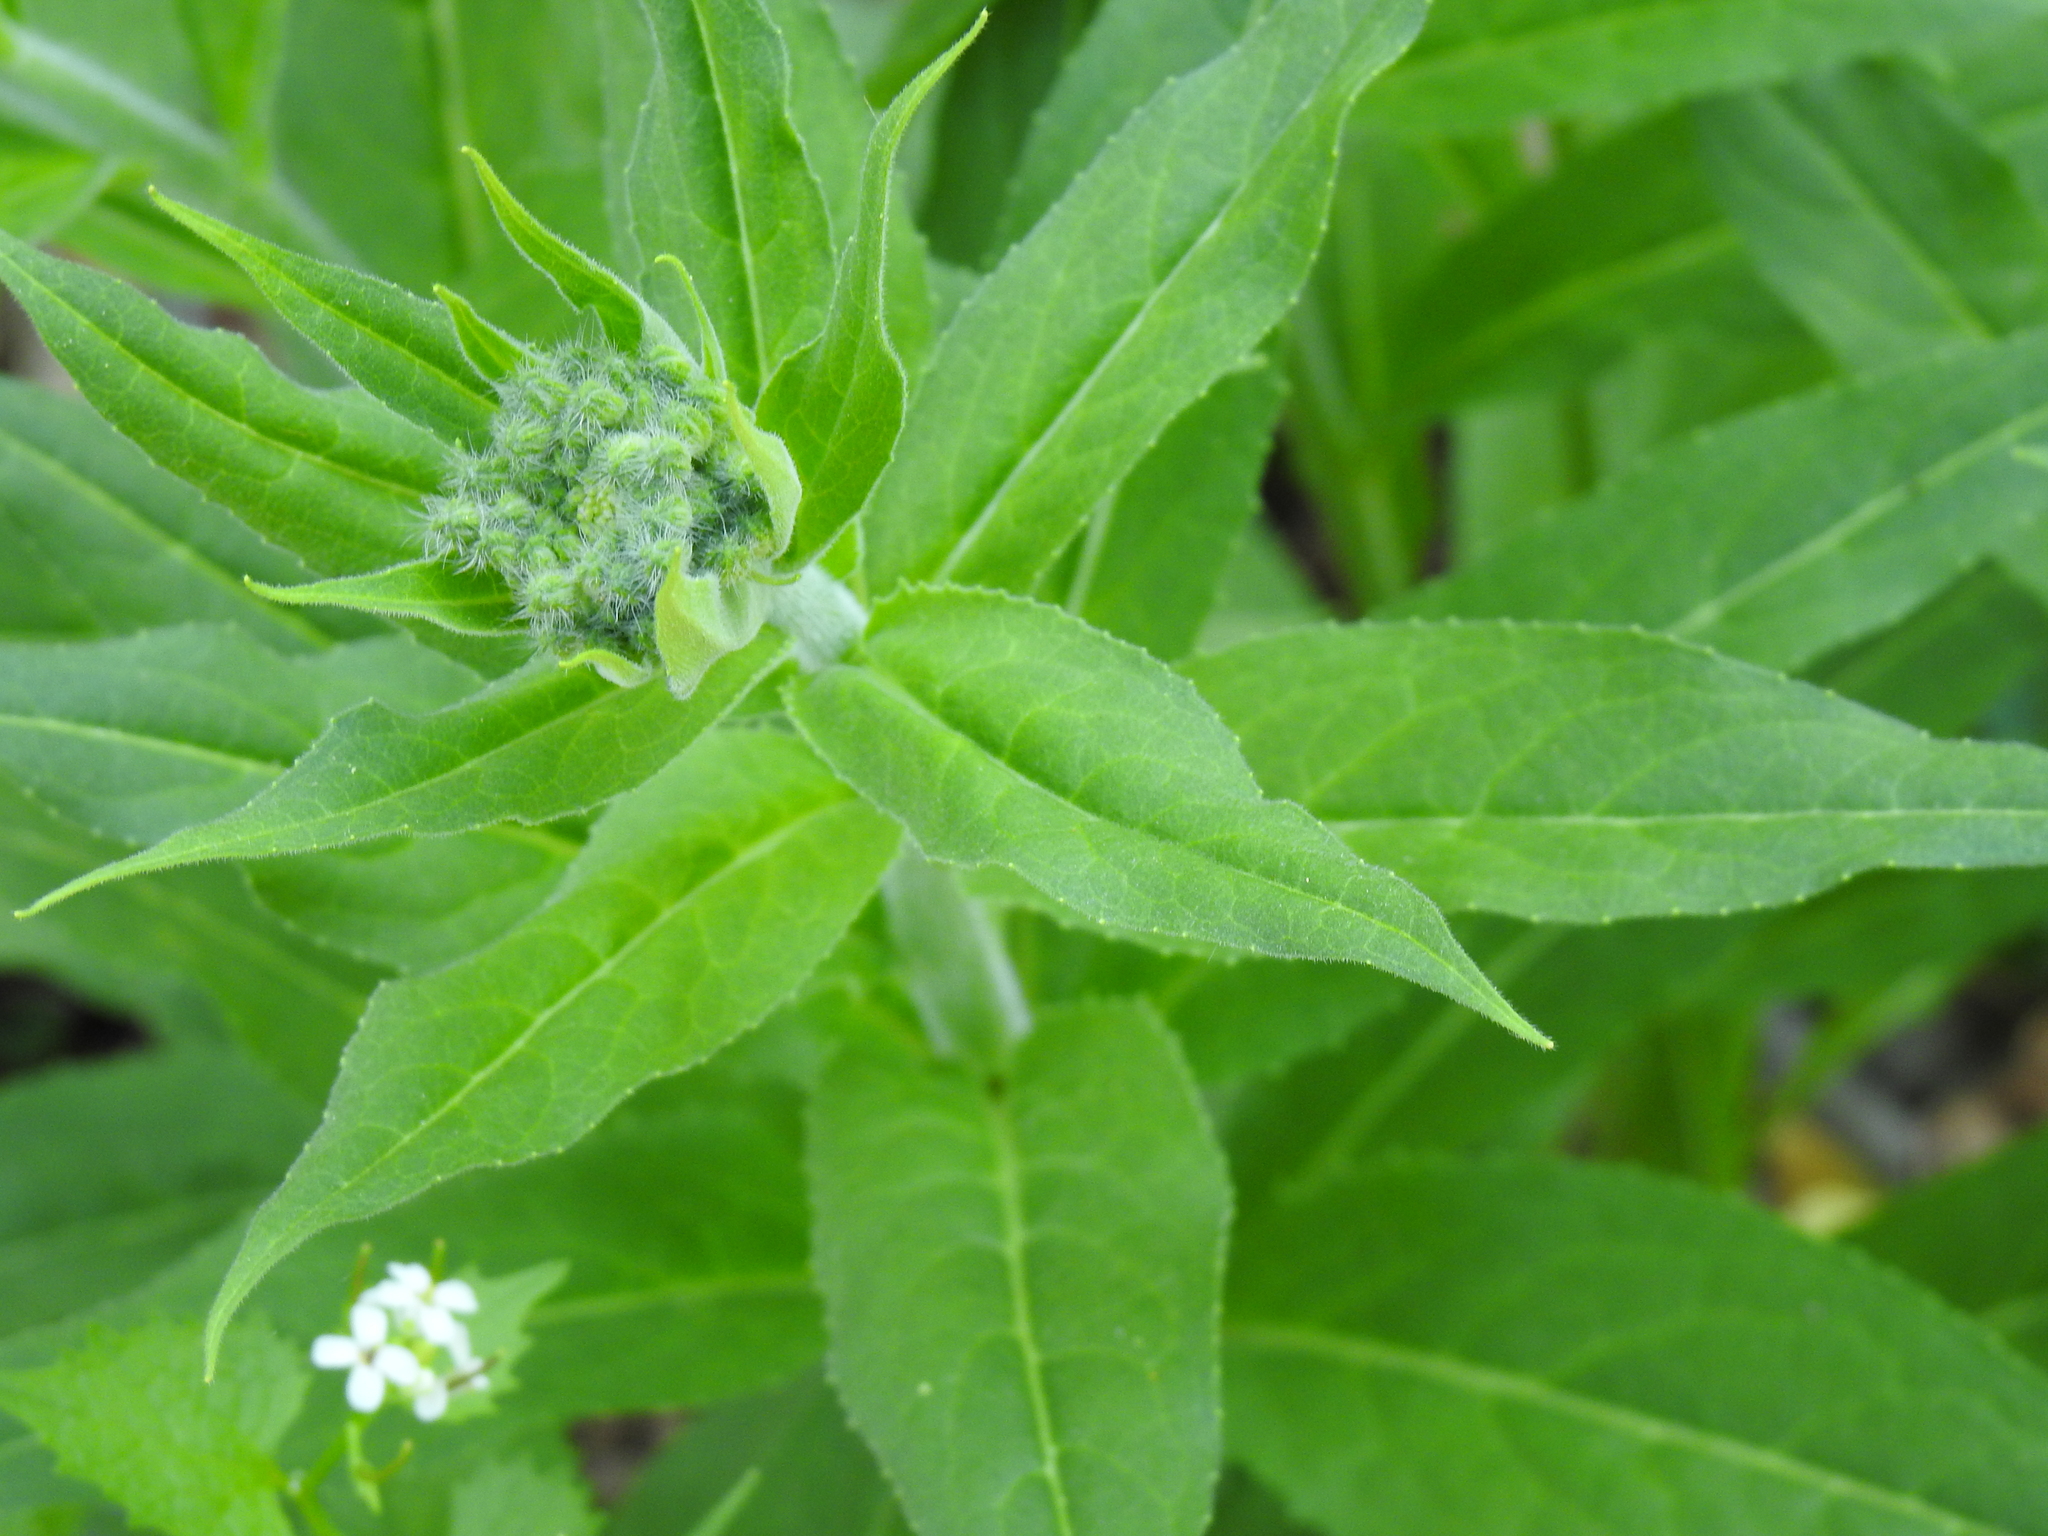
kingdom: Plantae
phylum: Tracheophyta
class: Magnoliopsida
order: Brassicales
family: Brassicaceae
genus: Hesperis
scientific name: Hesperis matronalis
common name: Dame's-violet
